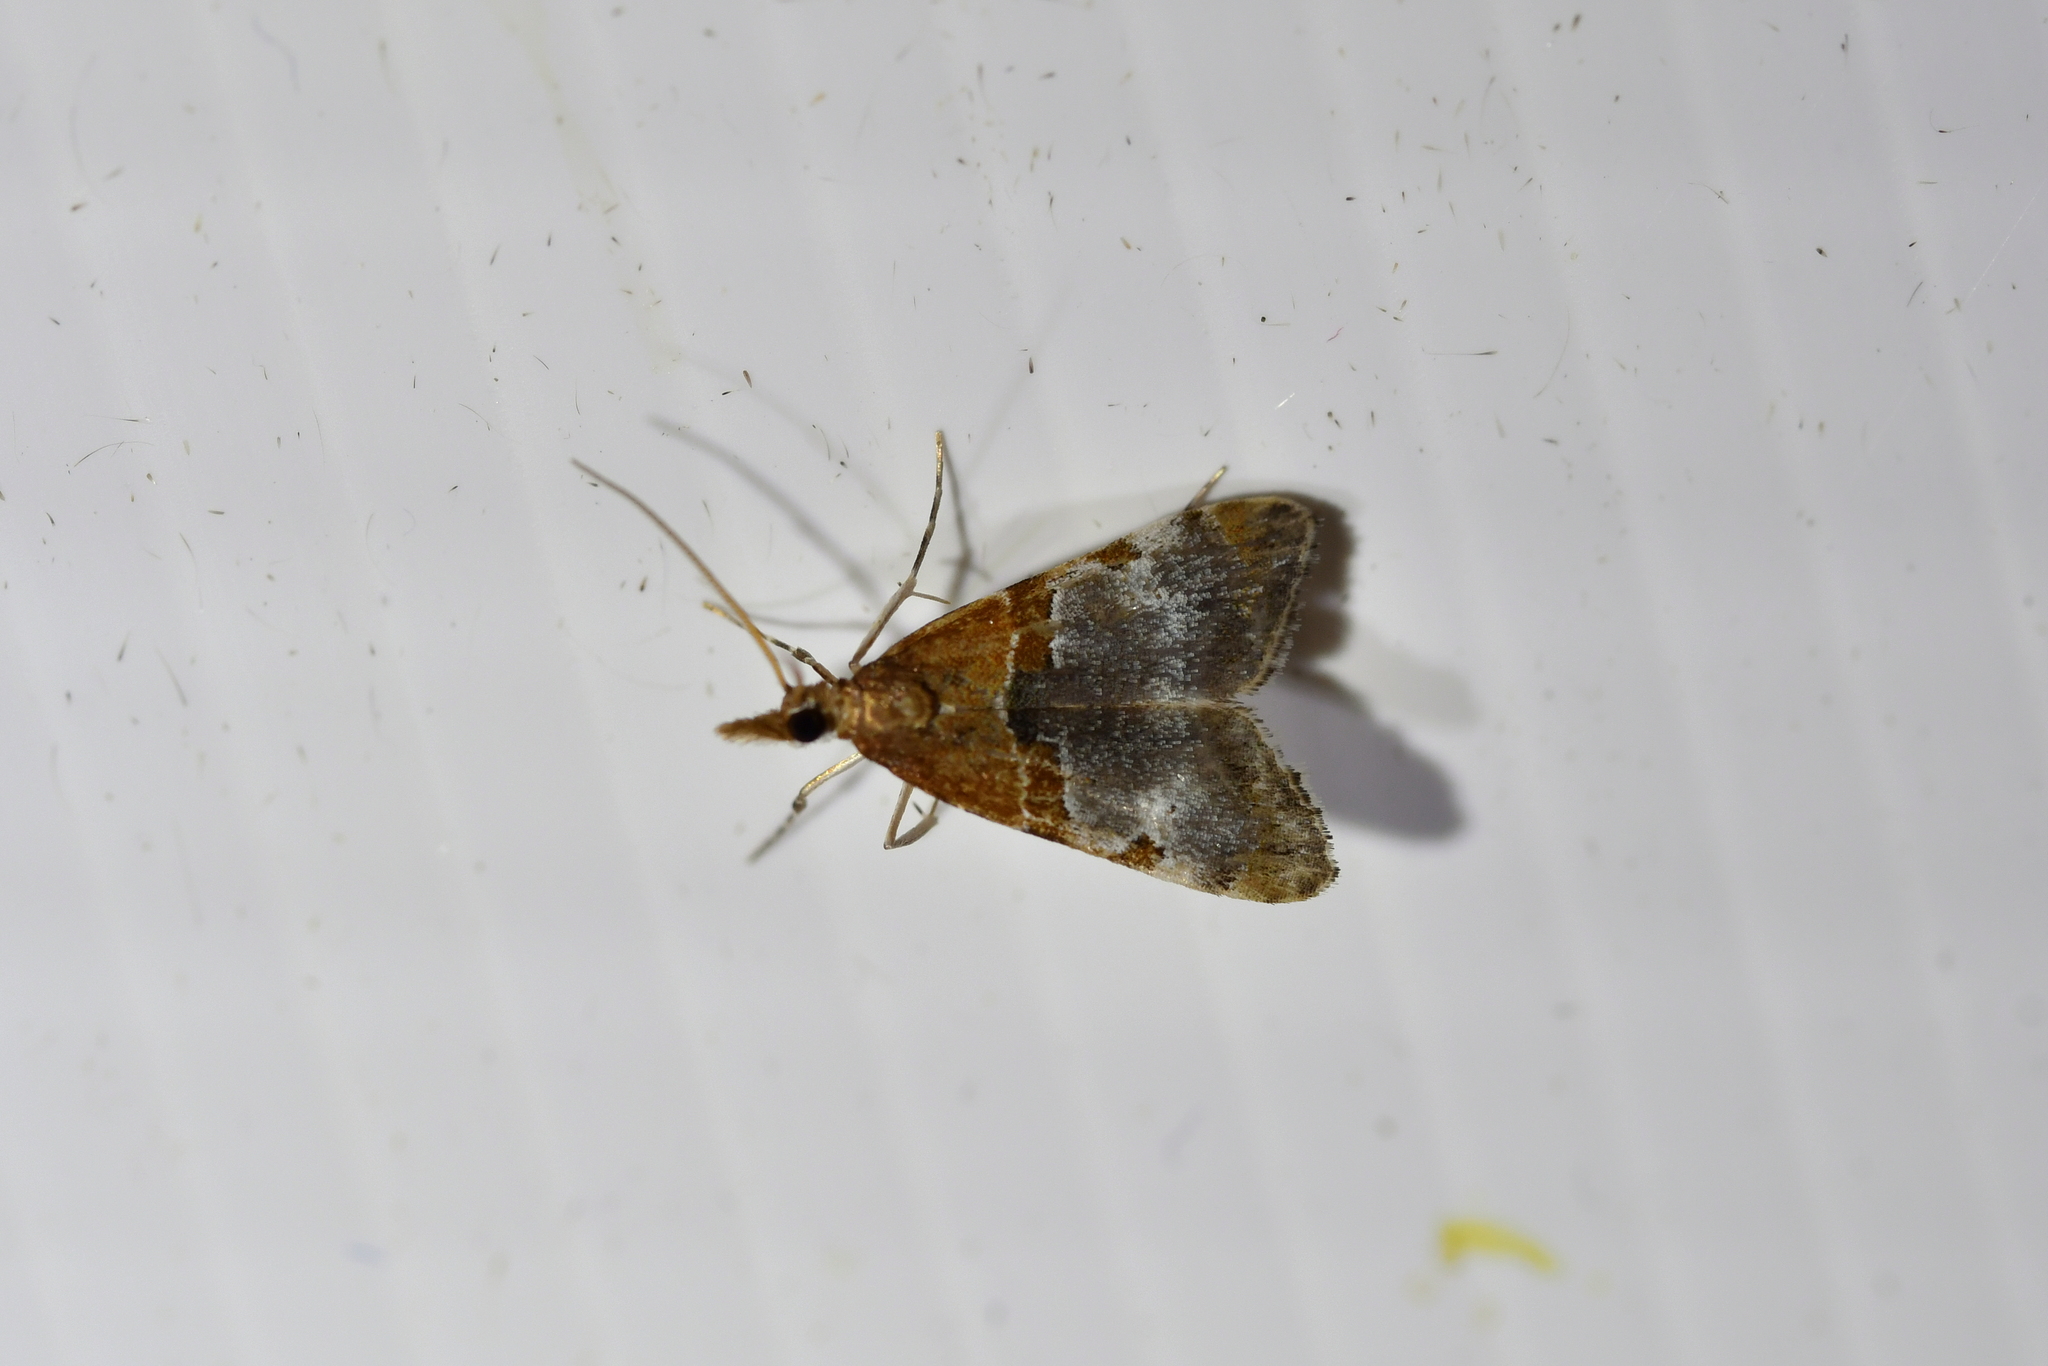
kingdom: Animalia
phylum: Arthropoda
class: Insecta
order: Lepidoptera
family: Crambidae
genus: Antiscopa
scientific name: Antiscopa epicomia
